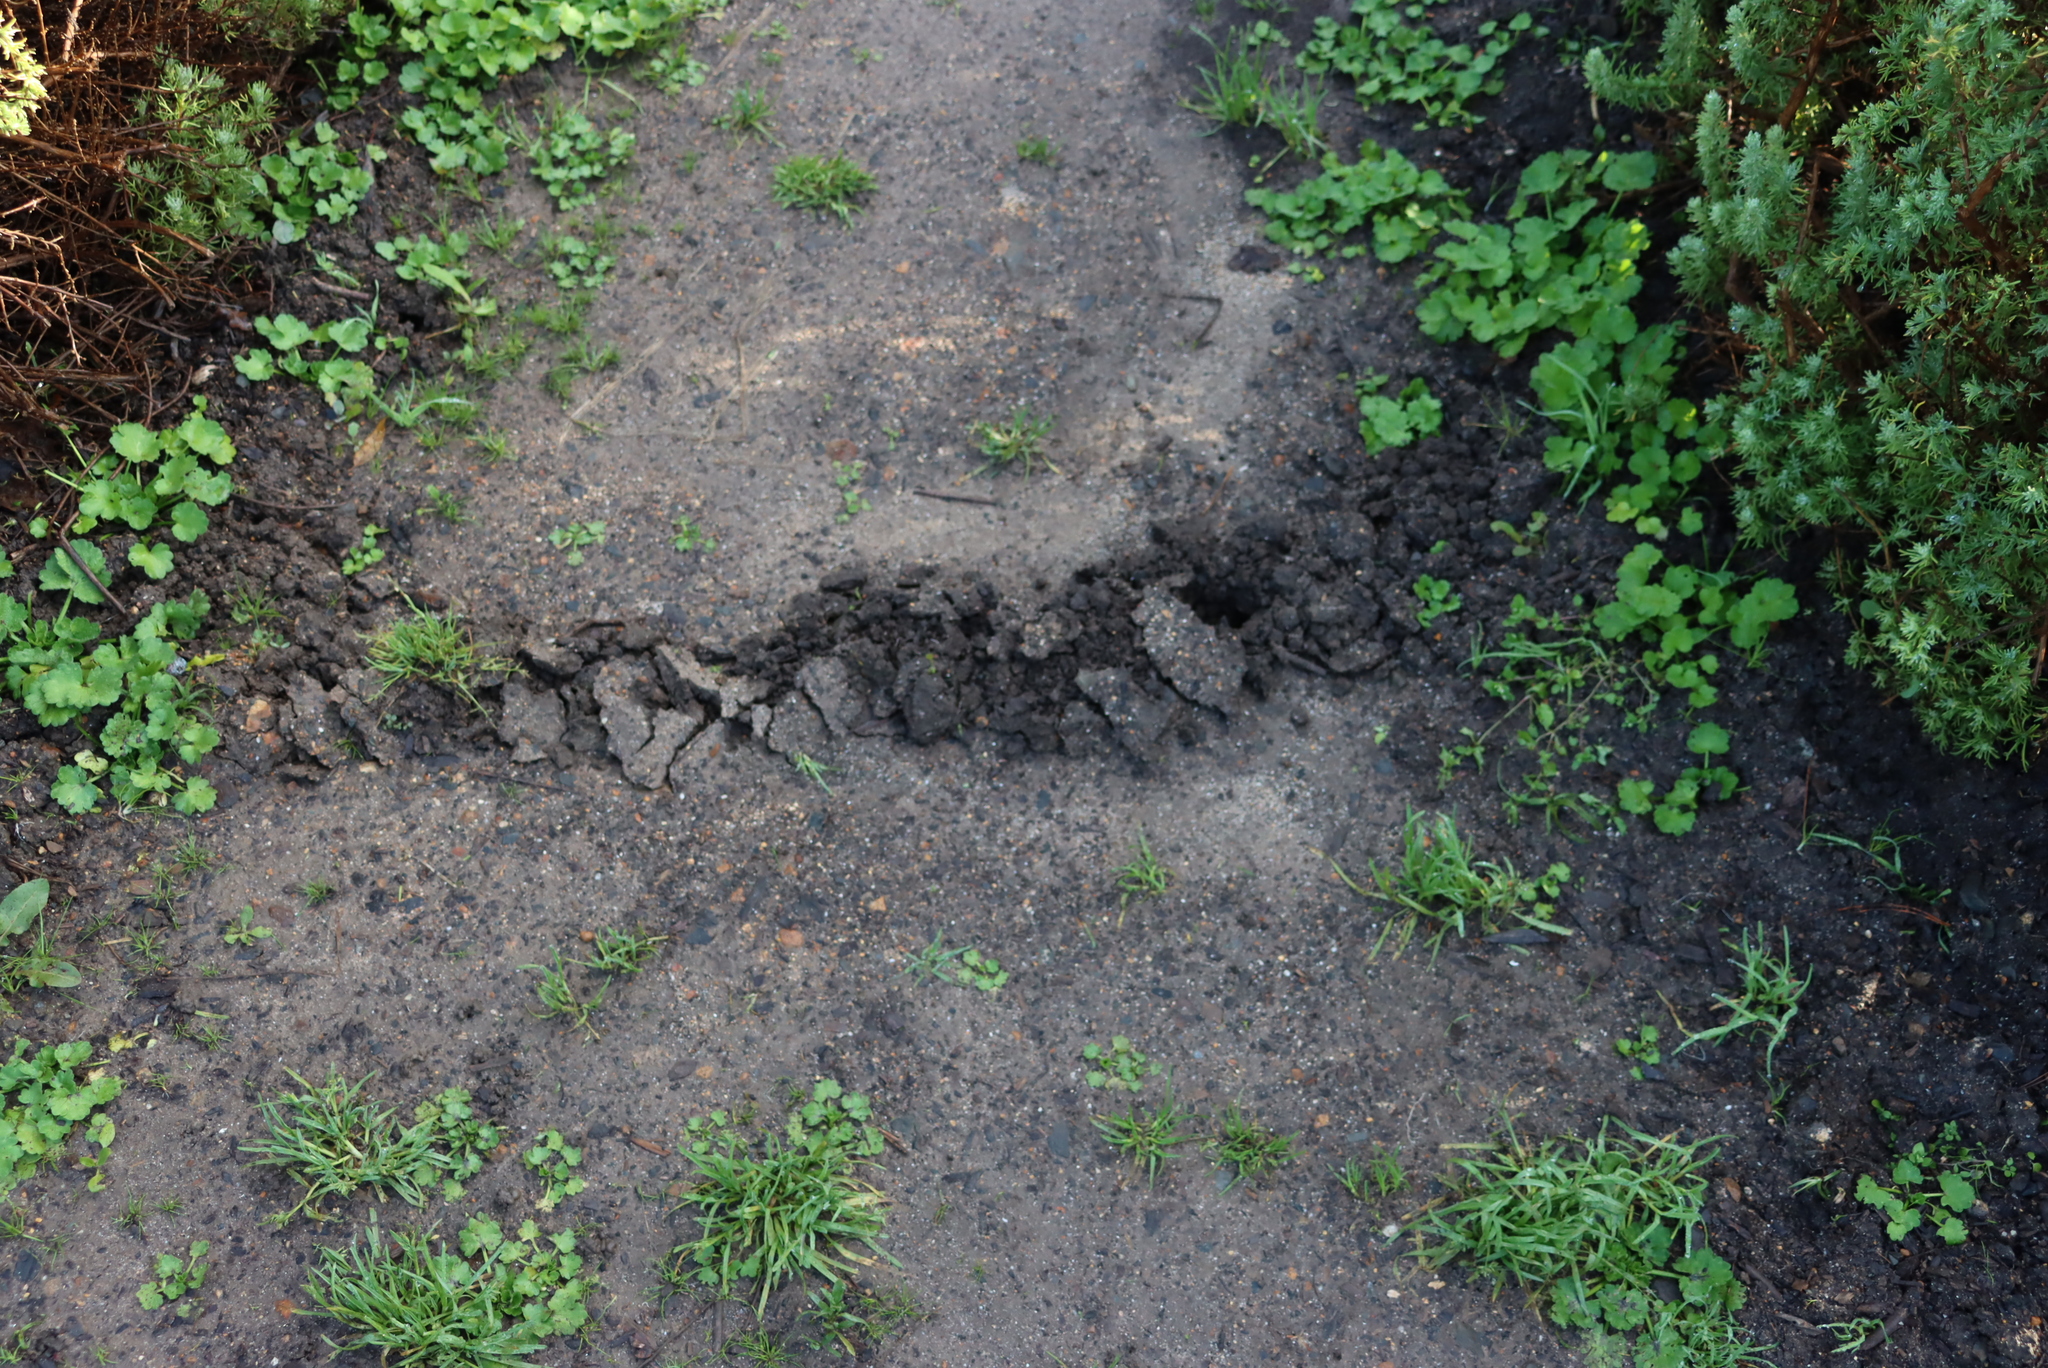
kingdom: Animalia
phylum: Chordata
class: Mammalia
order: Afrosoricida
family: Chrysochloridae
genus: Chrysochloris
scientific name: Chrysochloris asiatica
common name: Cape golden mole
